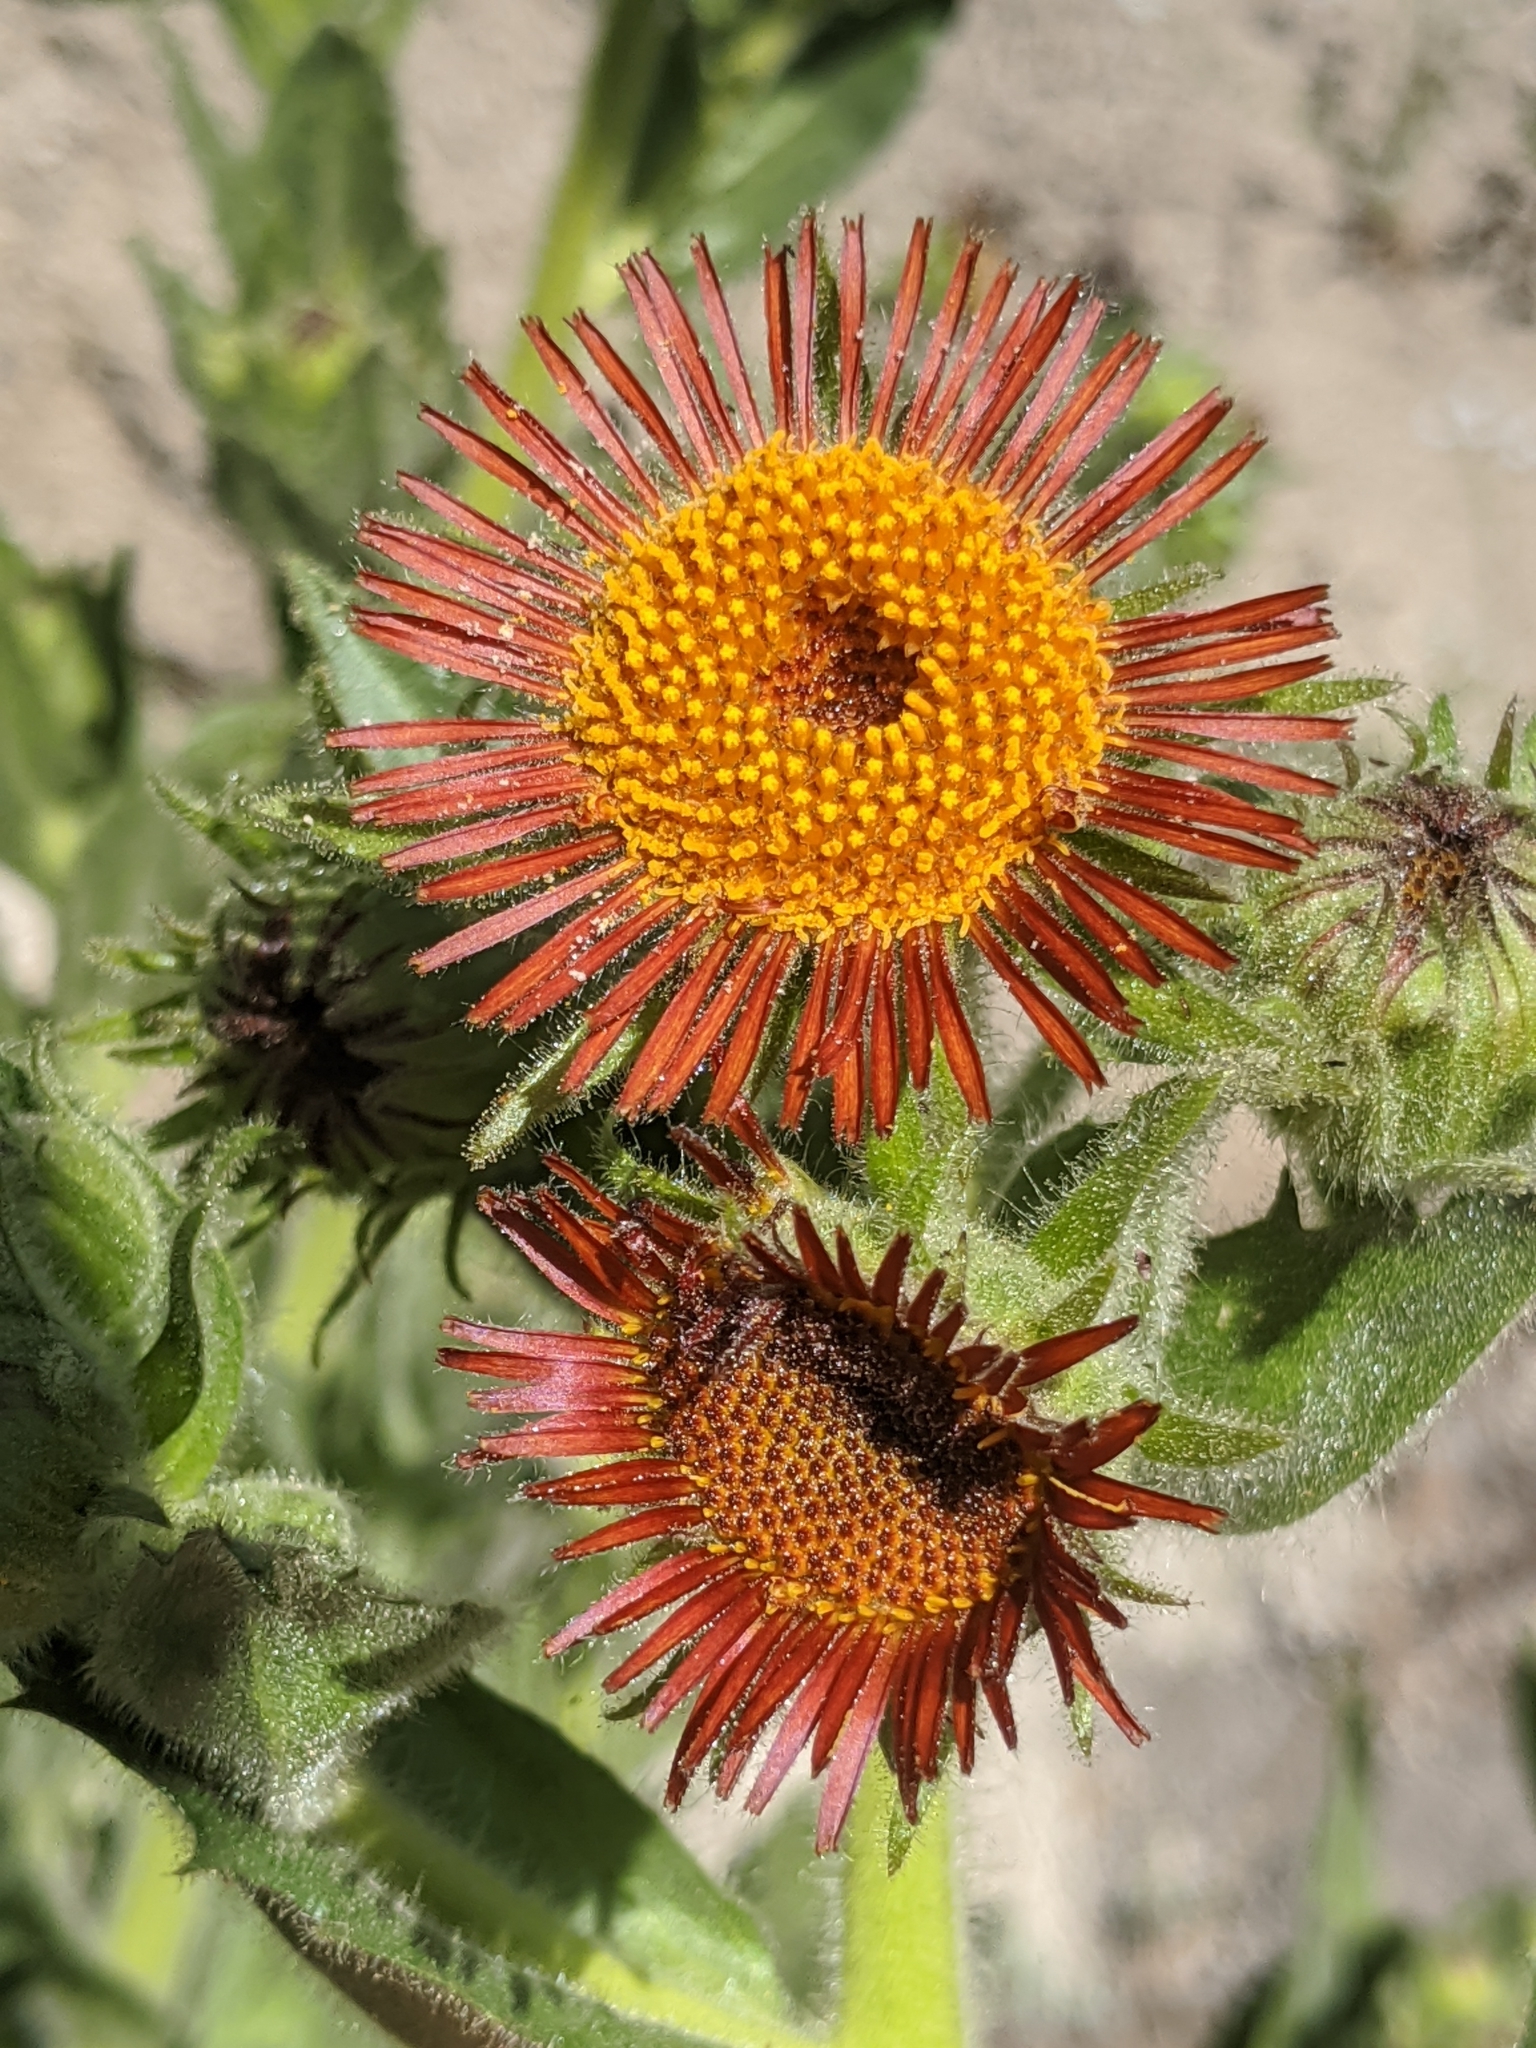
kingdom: Plantae
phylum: Tracheophyta
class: Magnoliopsida
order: Asterales
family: Asteraceae
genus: Hulsea
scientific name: Hulsea heterochroma
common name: Redray alpinegold
